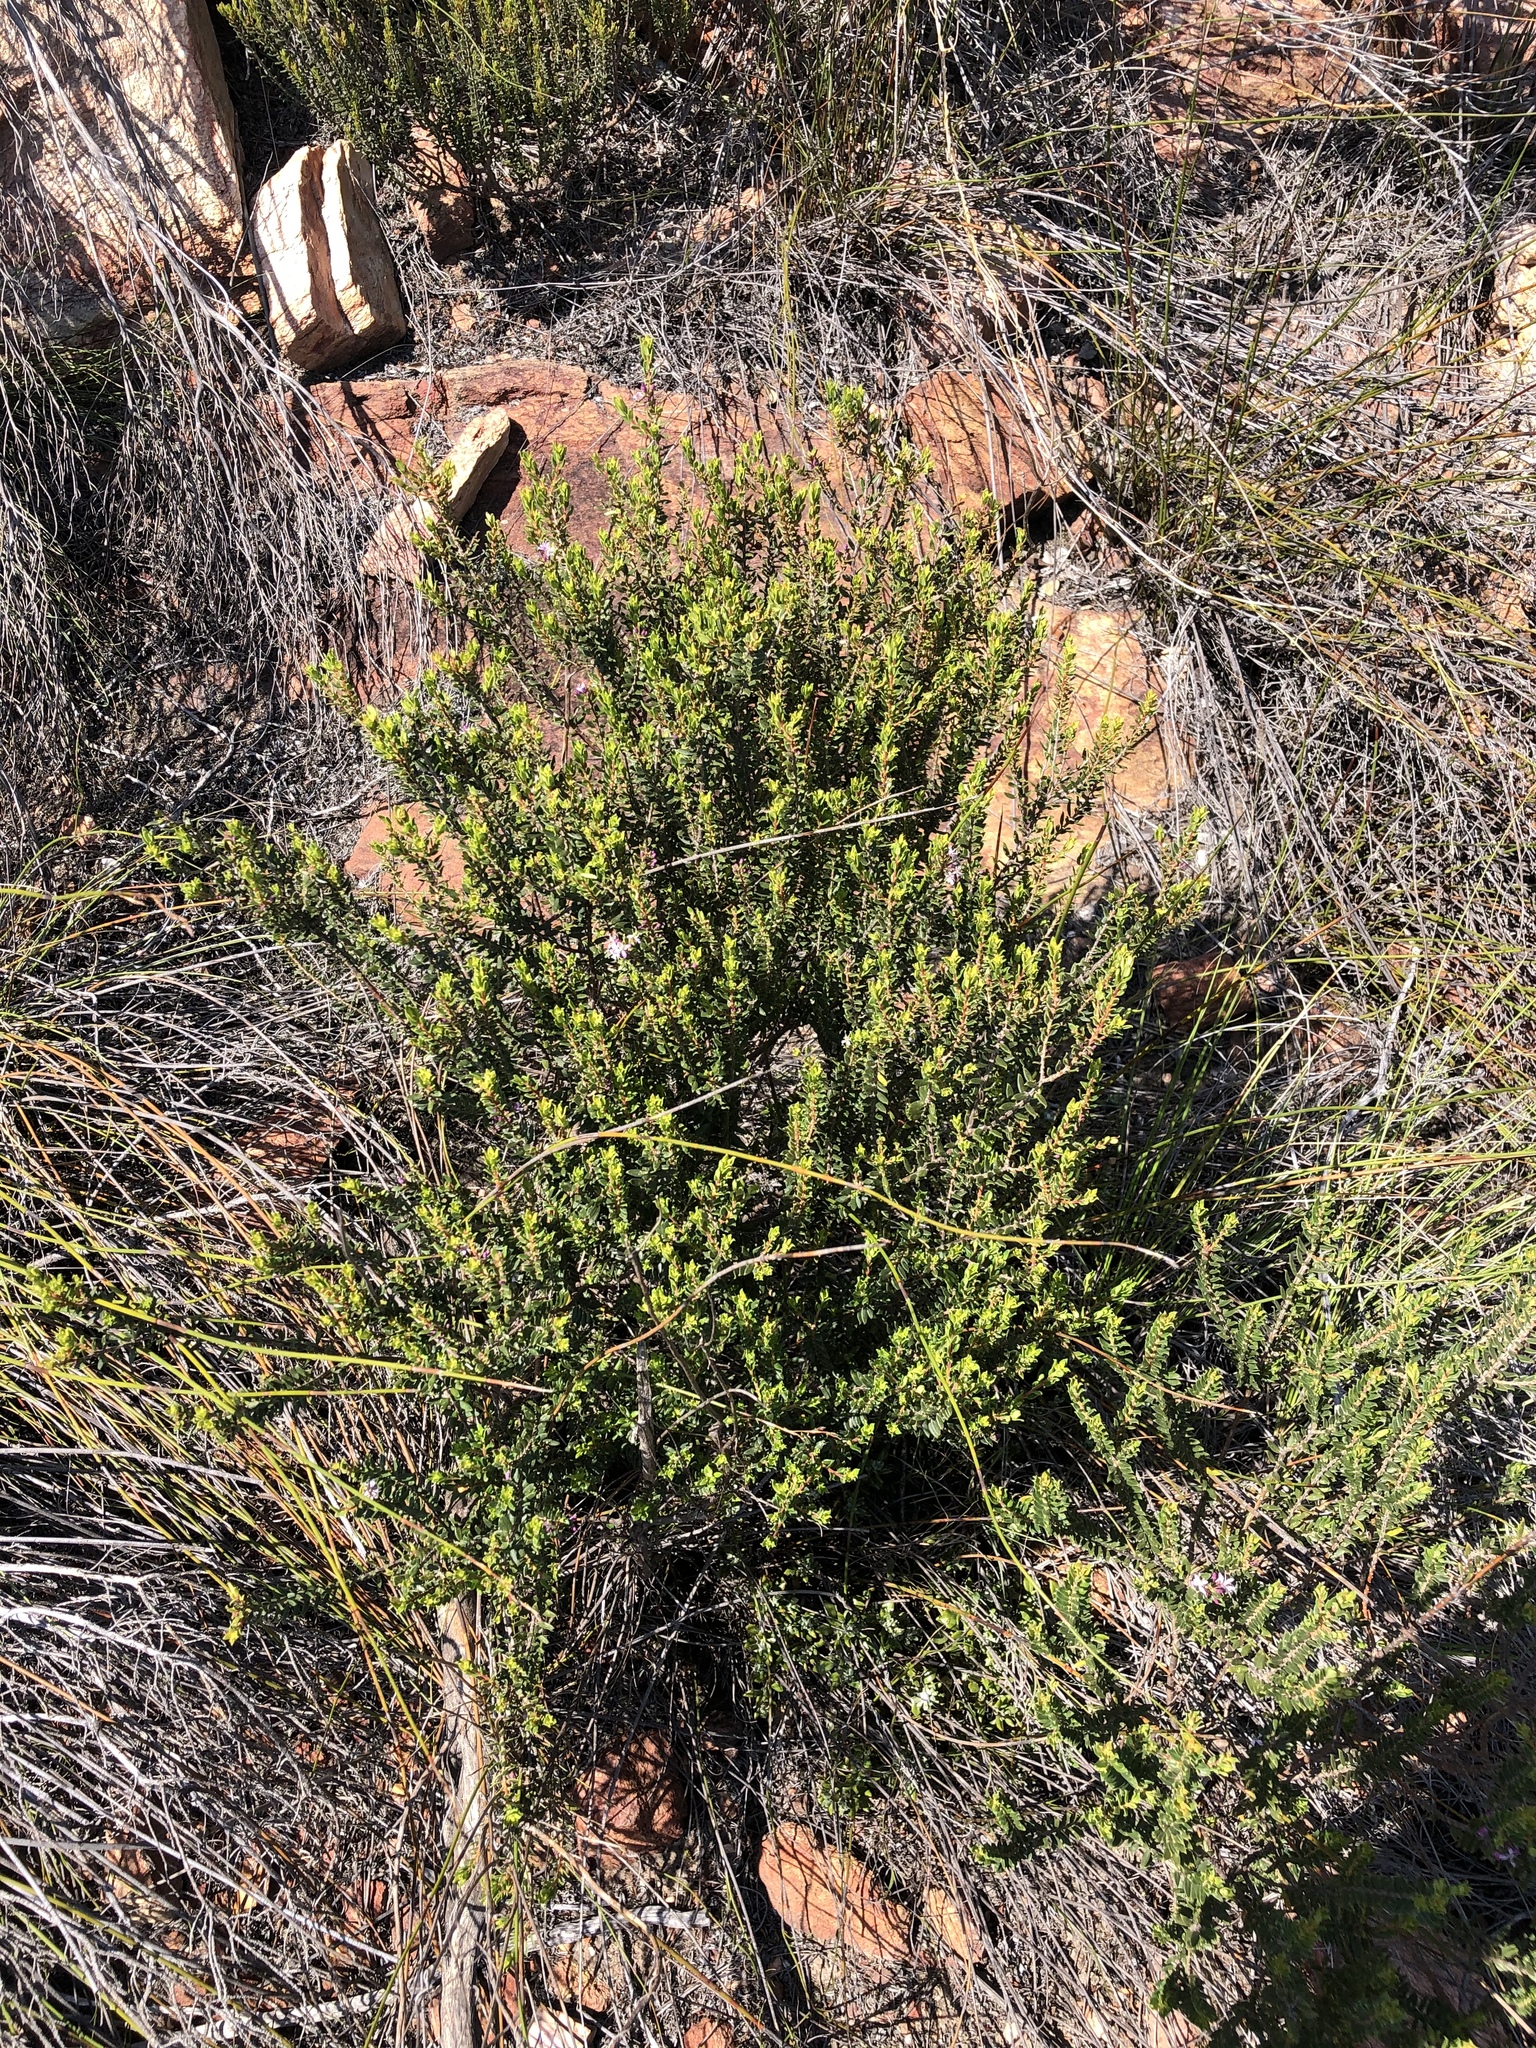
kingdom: Plantae
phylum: Tracheophyta
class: Magnoliopsida
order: Sapindales
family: Rutaceae
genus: Agathosma
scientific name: Agathosma ovata
